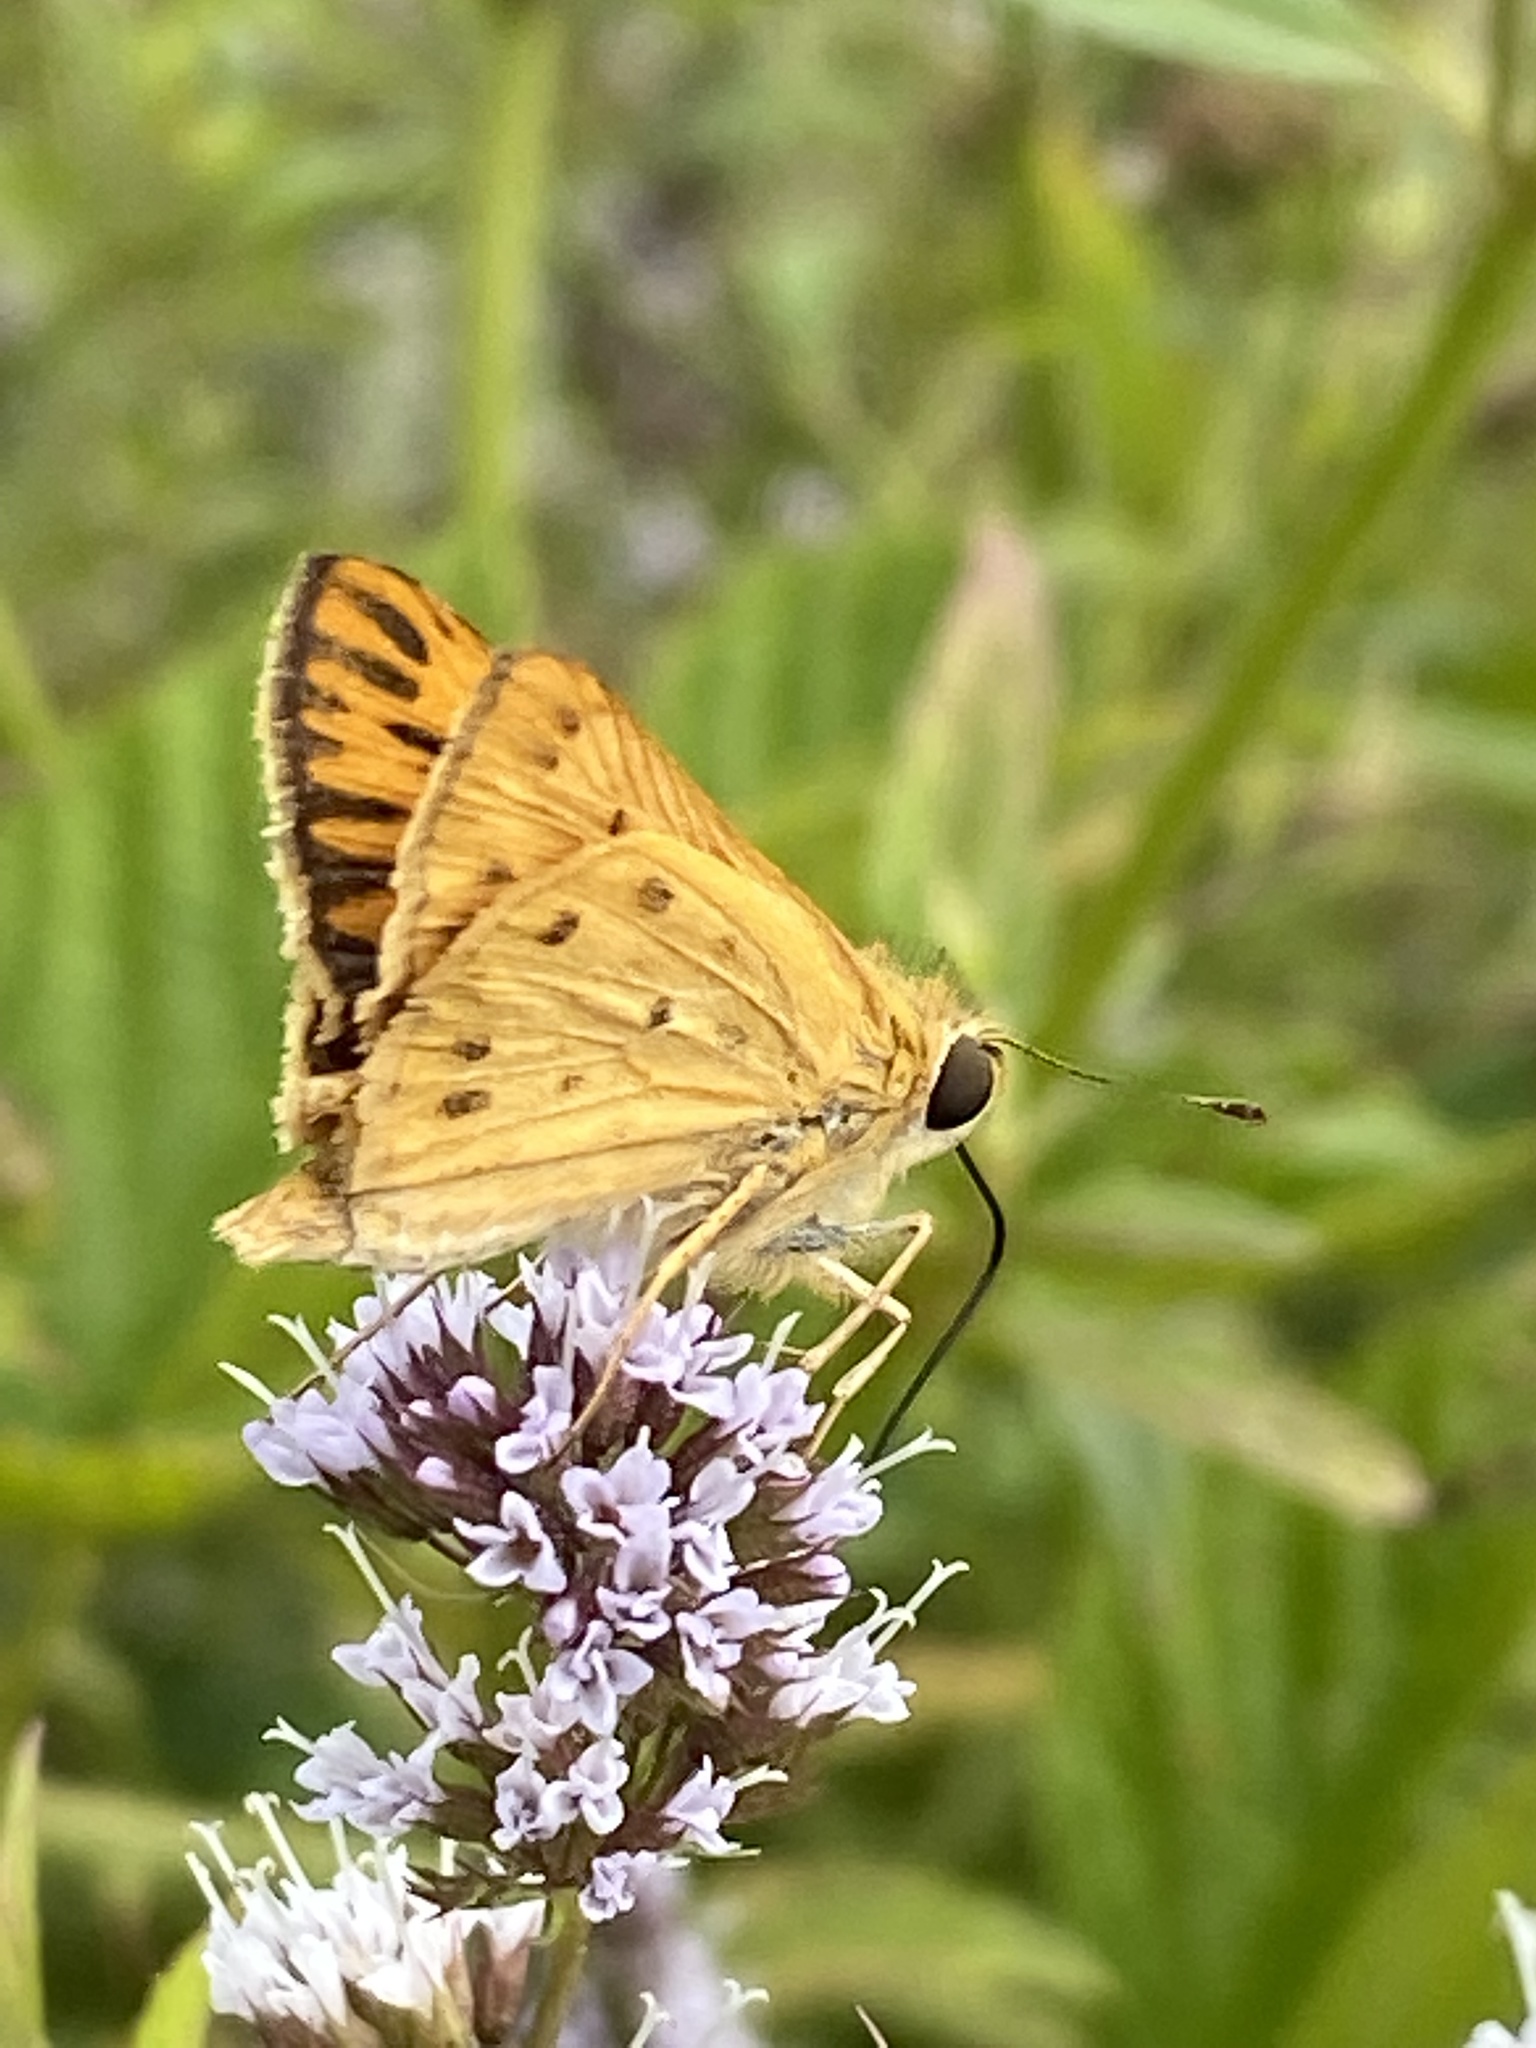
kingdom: Animalia
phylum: Arthropoda
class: Insecta
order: Lepidoptera
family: Hesperiidae
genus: Hylephila
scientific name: Hylephila phyleus
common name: Fiery skipper
